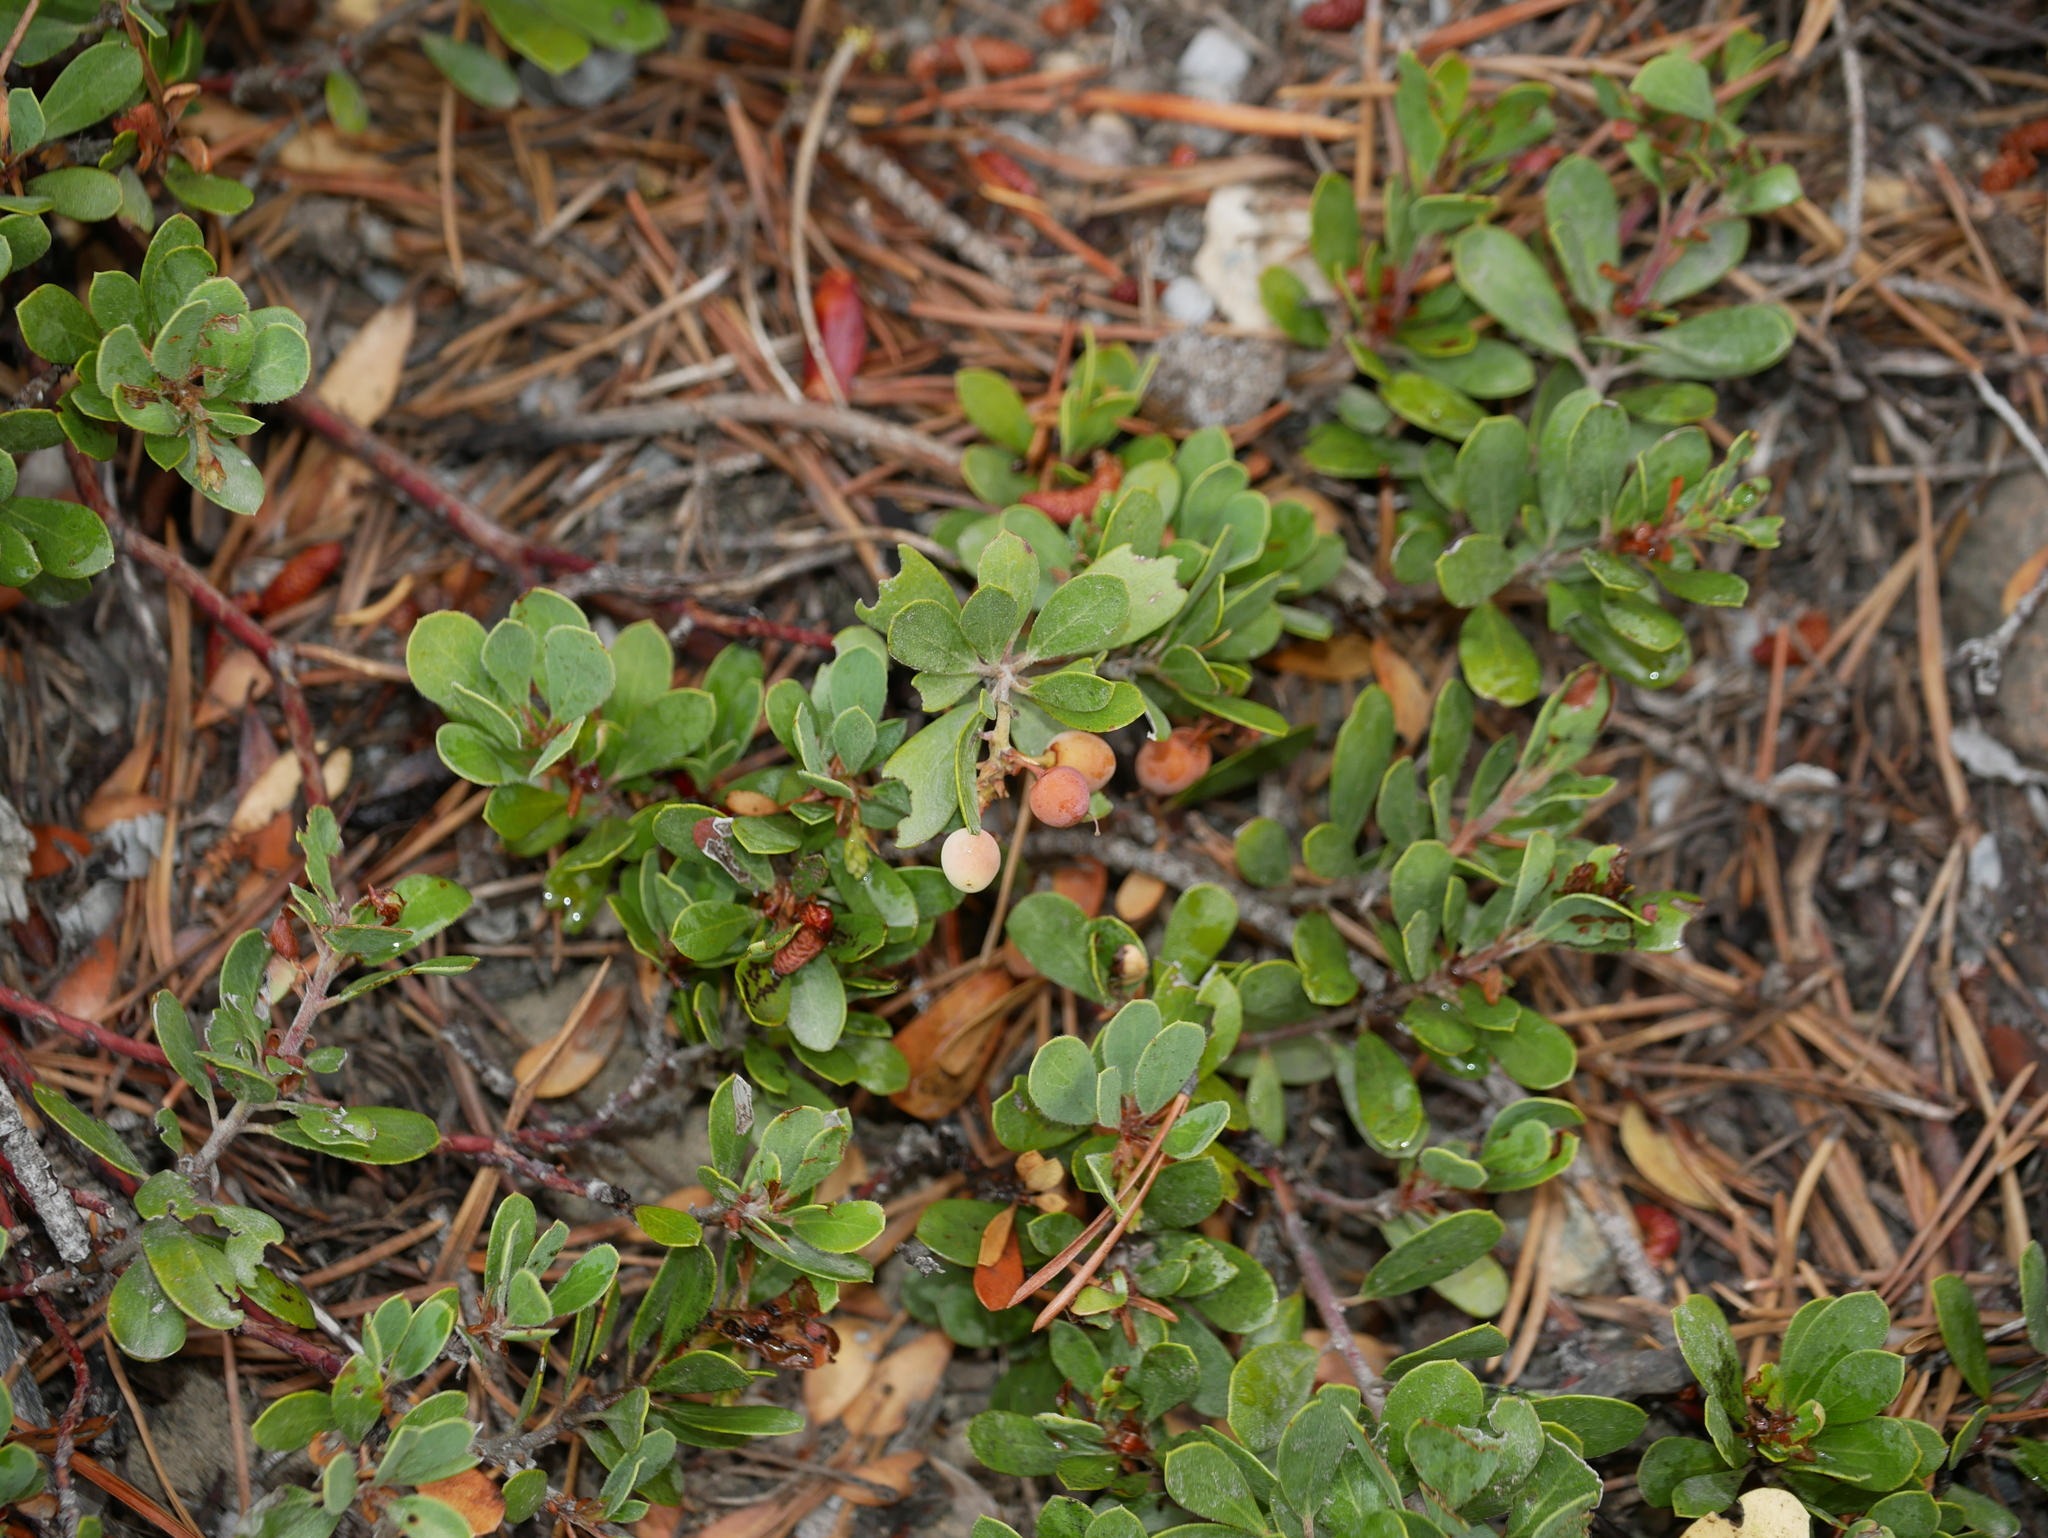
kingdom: Plantae
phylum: Tracheophyta
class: Magnoliopsida
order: Ericales
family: Ericaceae
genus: Arctostaphylos
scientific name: Arctostaphylos nevadensis
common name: Pinemat manzanita
